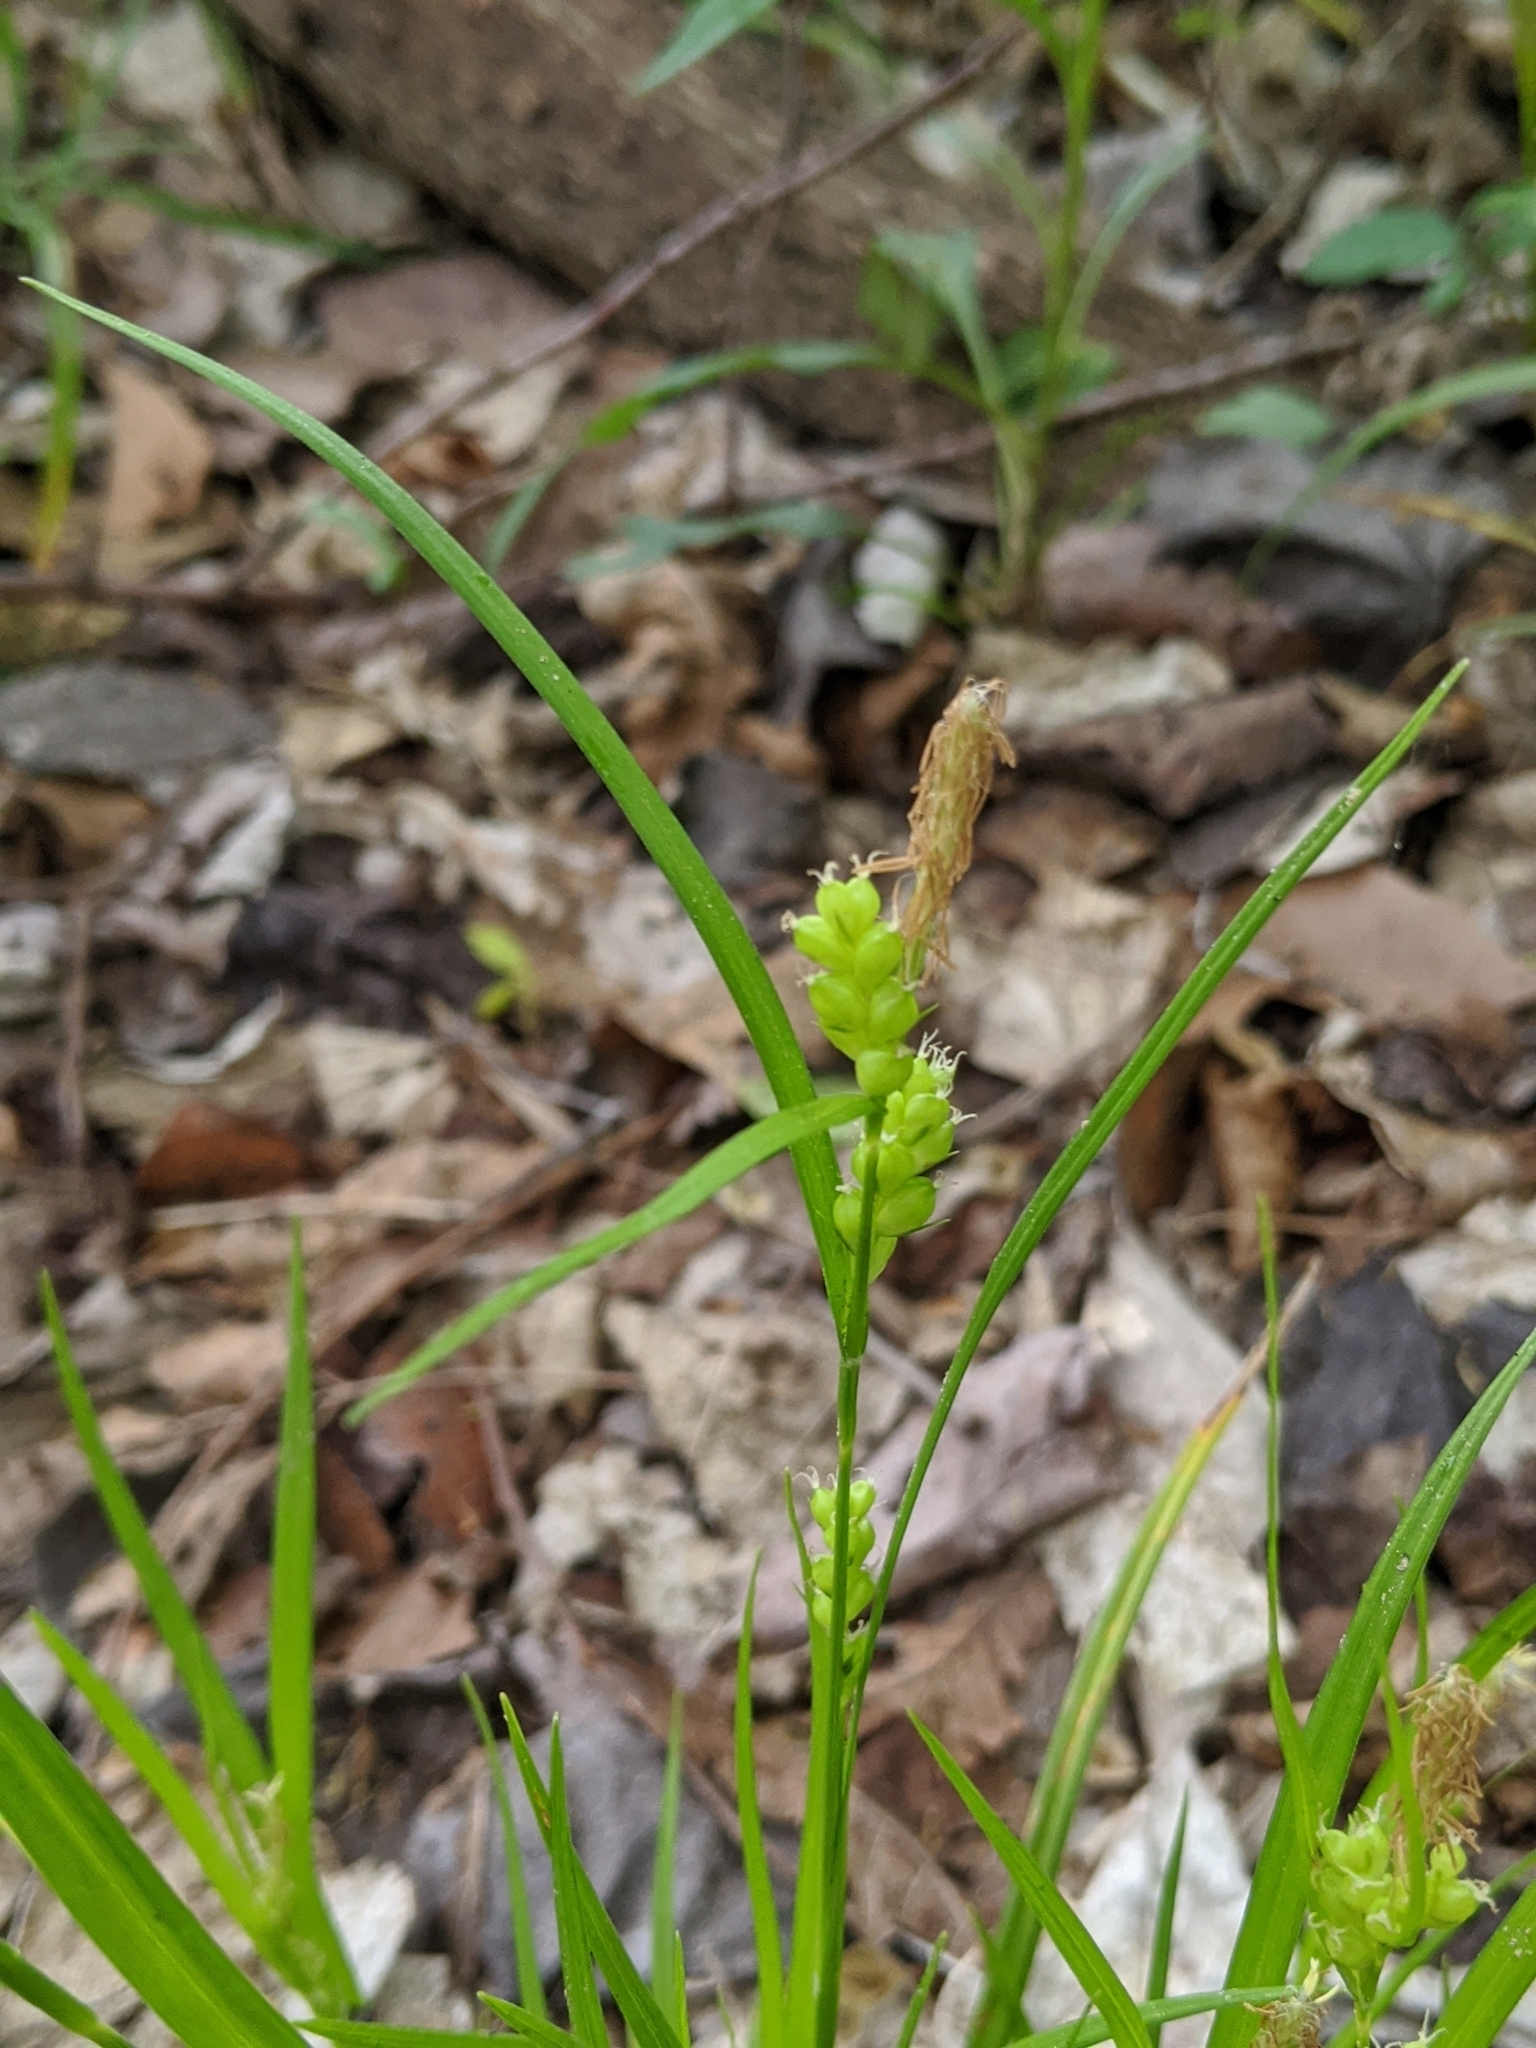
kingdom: Plantae
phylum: Tracheophyta
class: Liliopsida
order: Poales
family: Cyperaceae
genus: Carex
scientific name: Carex blanda
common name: Bland sedge
